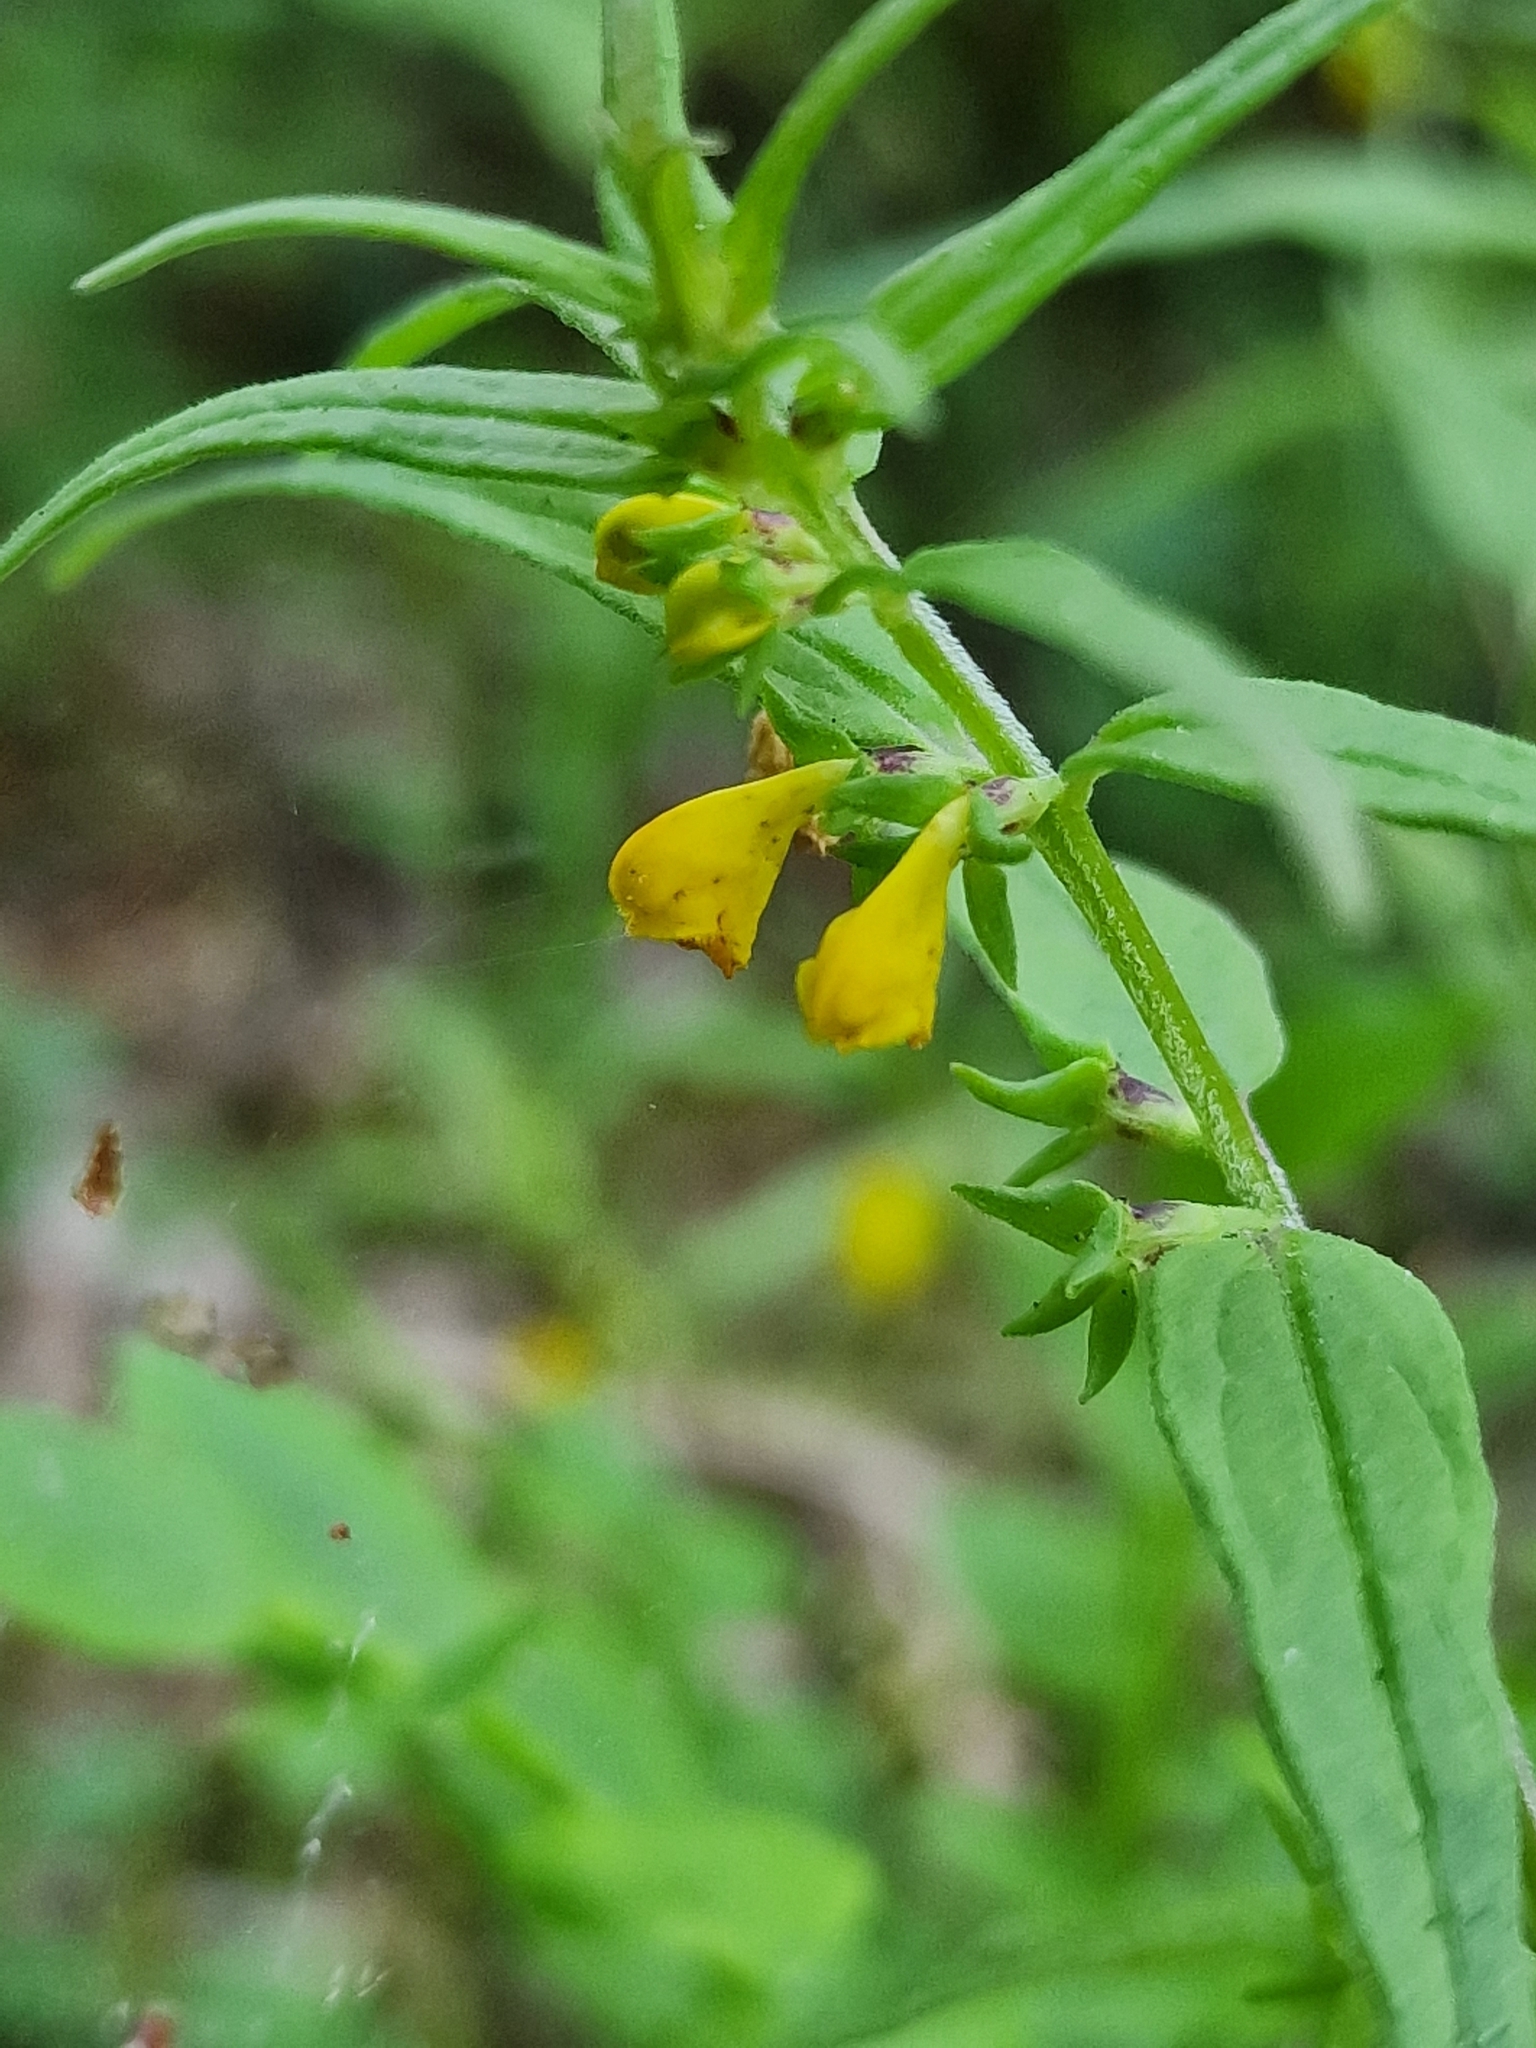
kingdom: Plantae
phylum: Tracheophyta
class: Magnoliopsida
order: Lamiales
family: Orobanchaceae
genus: Melampyrum
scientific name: Melampyrum sylvaticum
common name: Small cow-wheat
